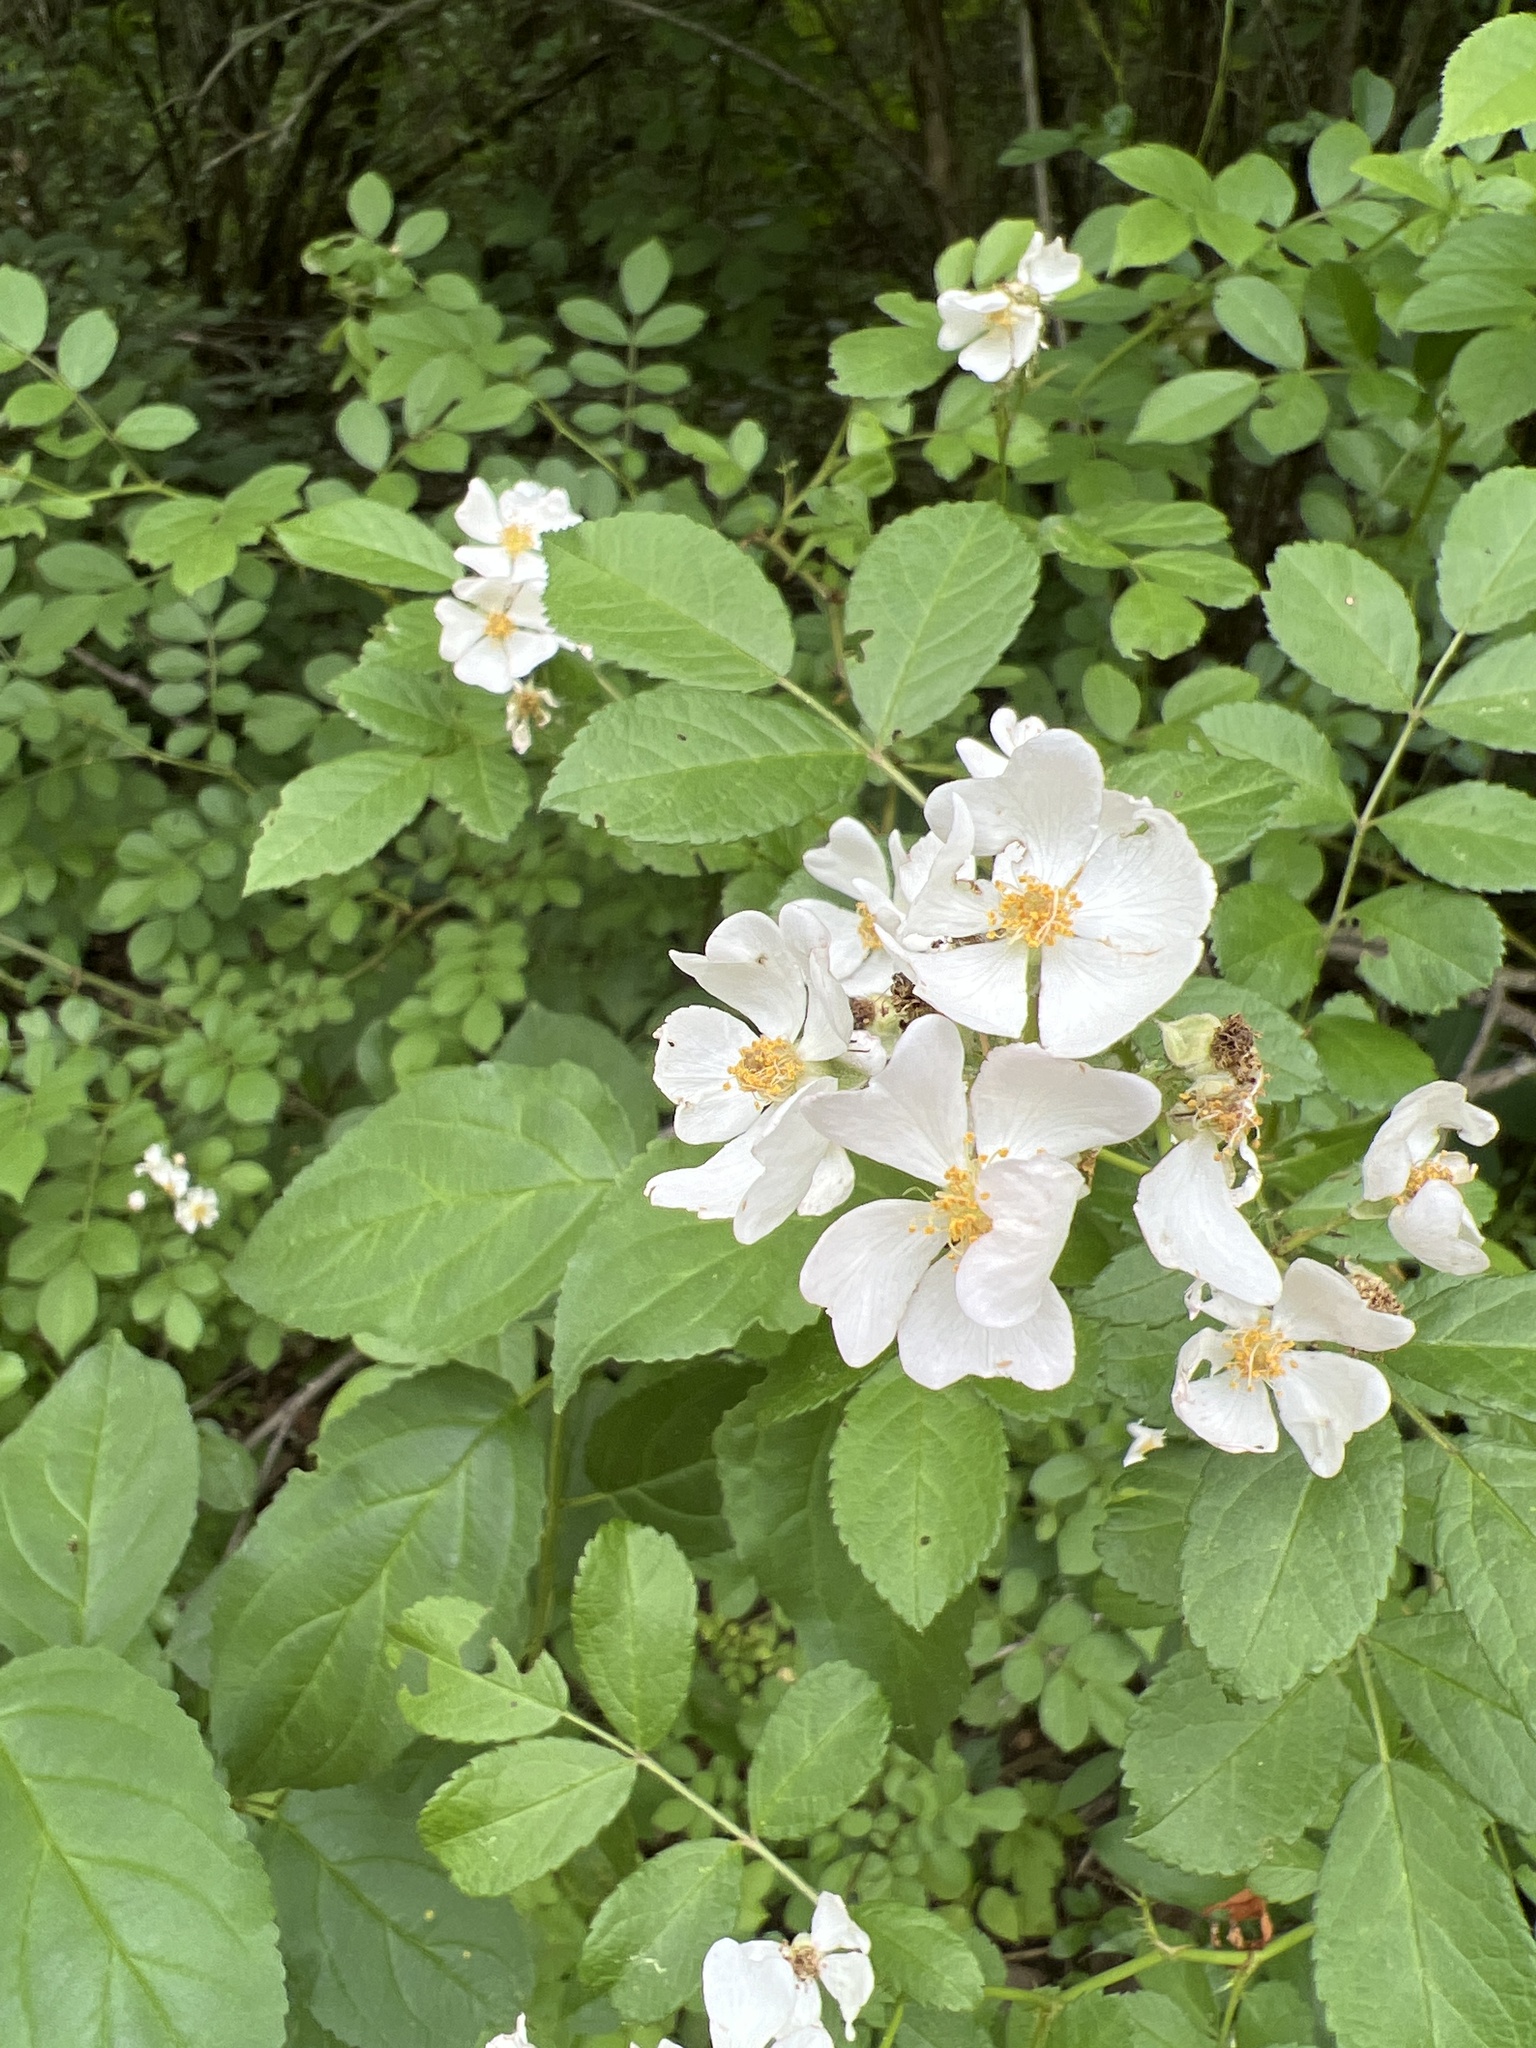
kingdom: Plantae
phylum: Tracheophyta
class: Magnoliopsida
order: Rosales
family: Rosaceae
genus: Rosa
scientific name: Rosa multiflora
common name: Multiflora rose
